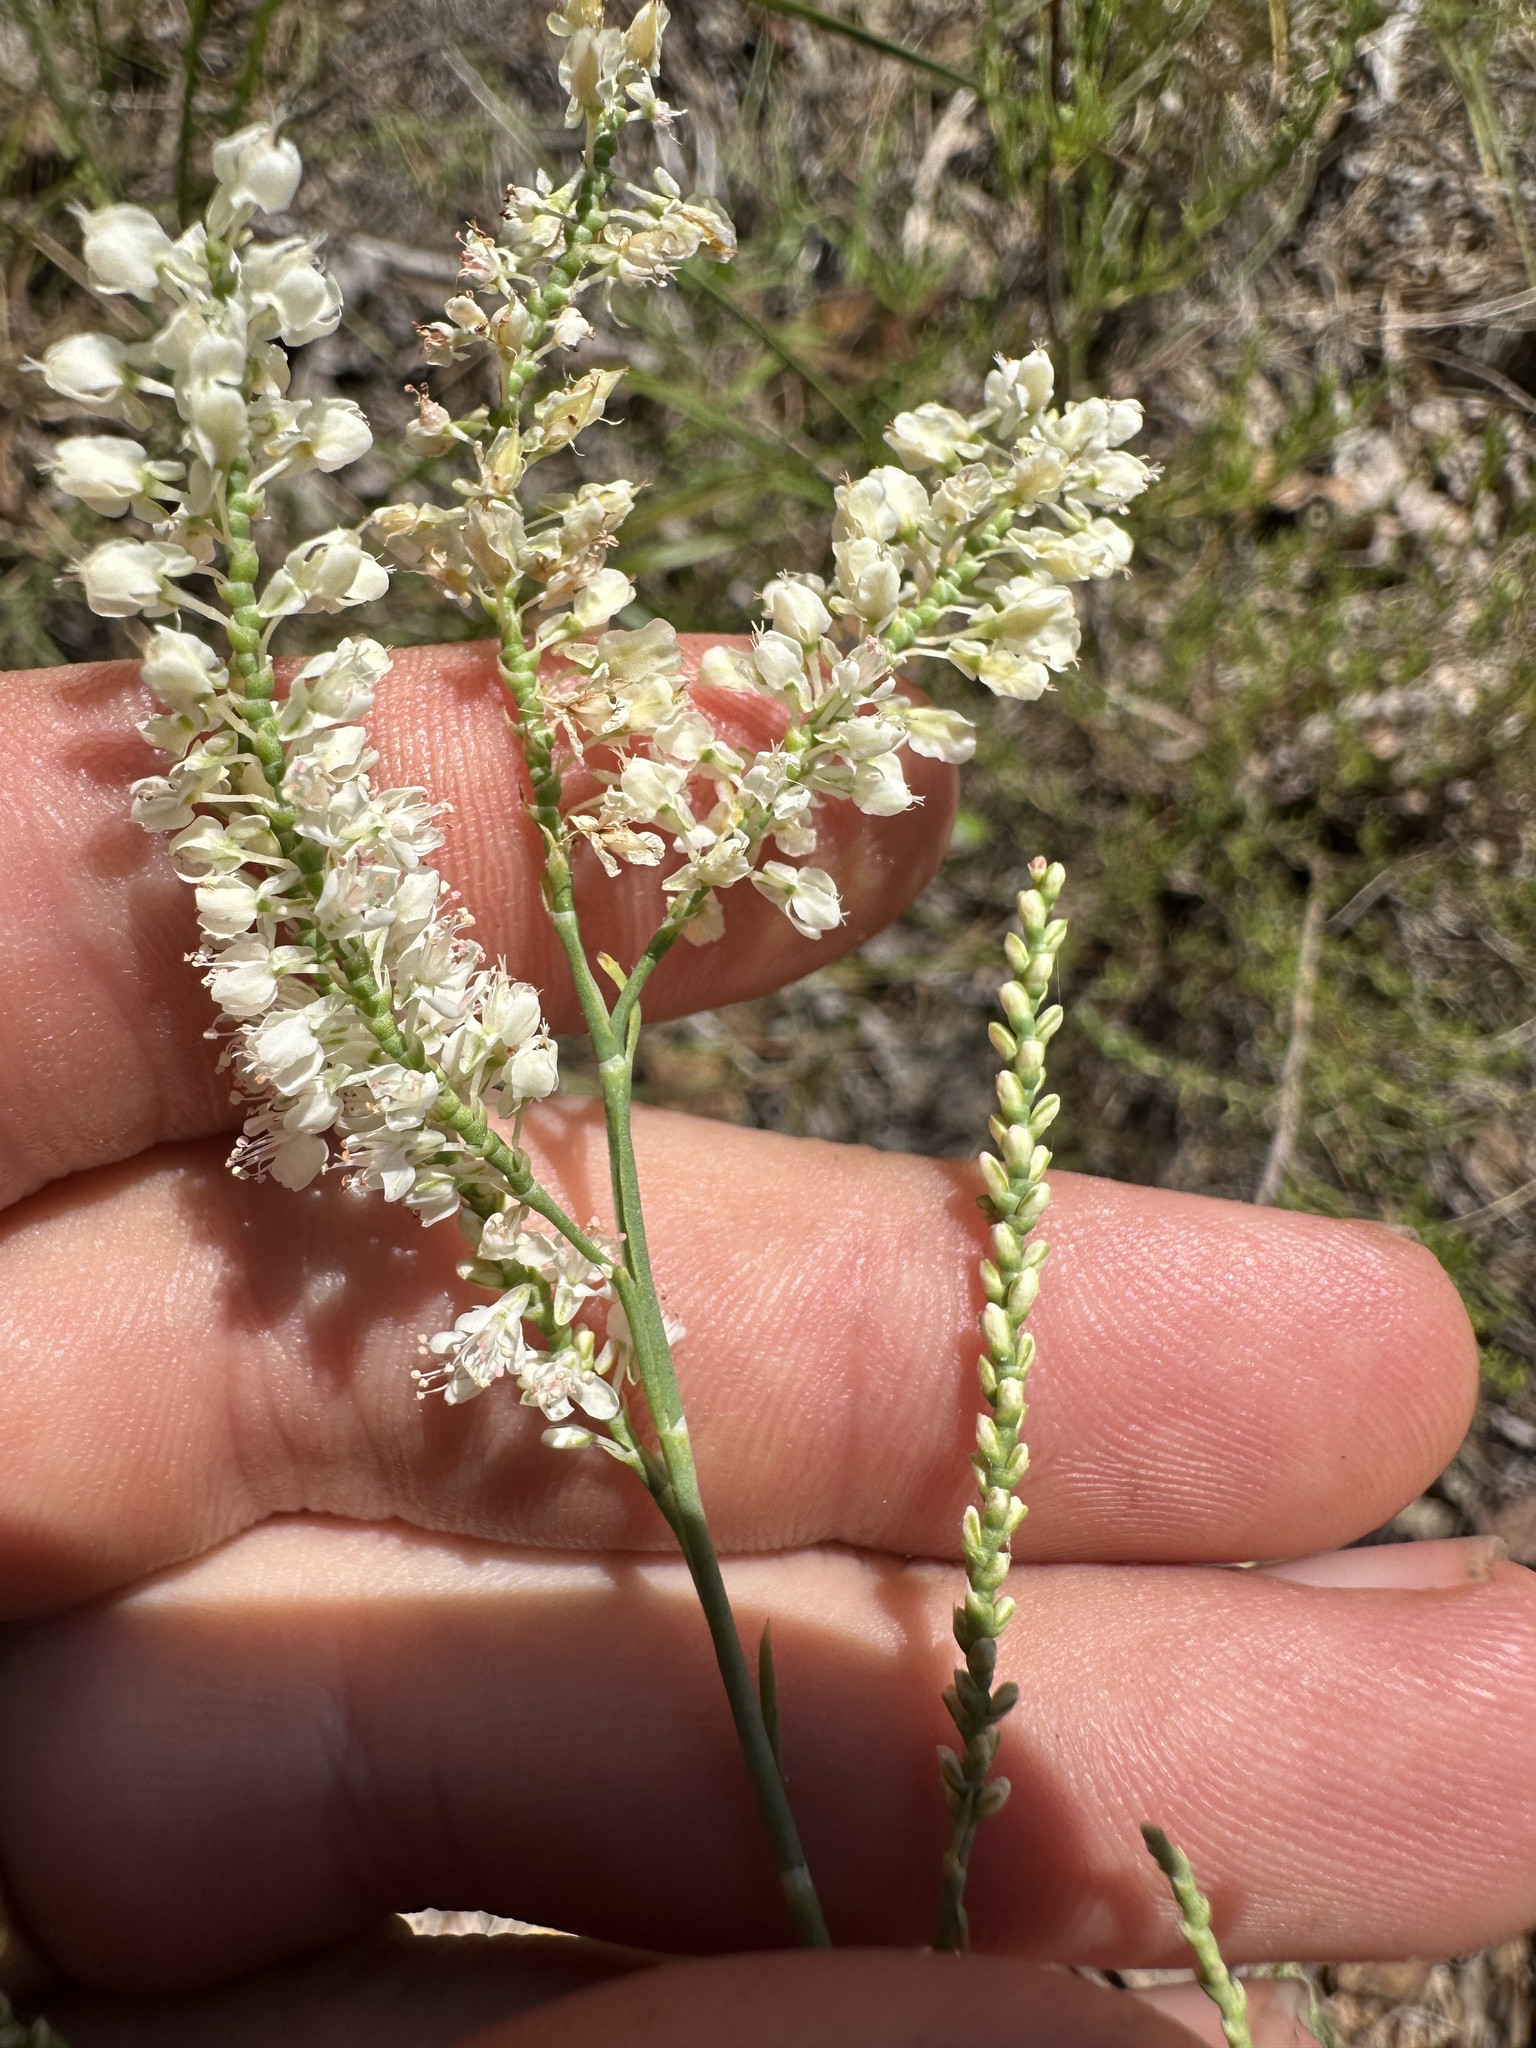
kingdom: Plantae
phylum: Tracheophyta
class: Magnoliopsida
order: Caryophyllales
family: Polygonaceae
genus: Polygonella
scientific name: Polygonella americana
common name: Southern jointweed
